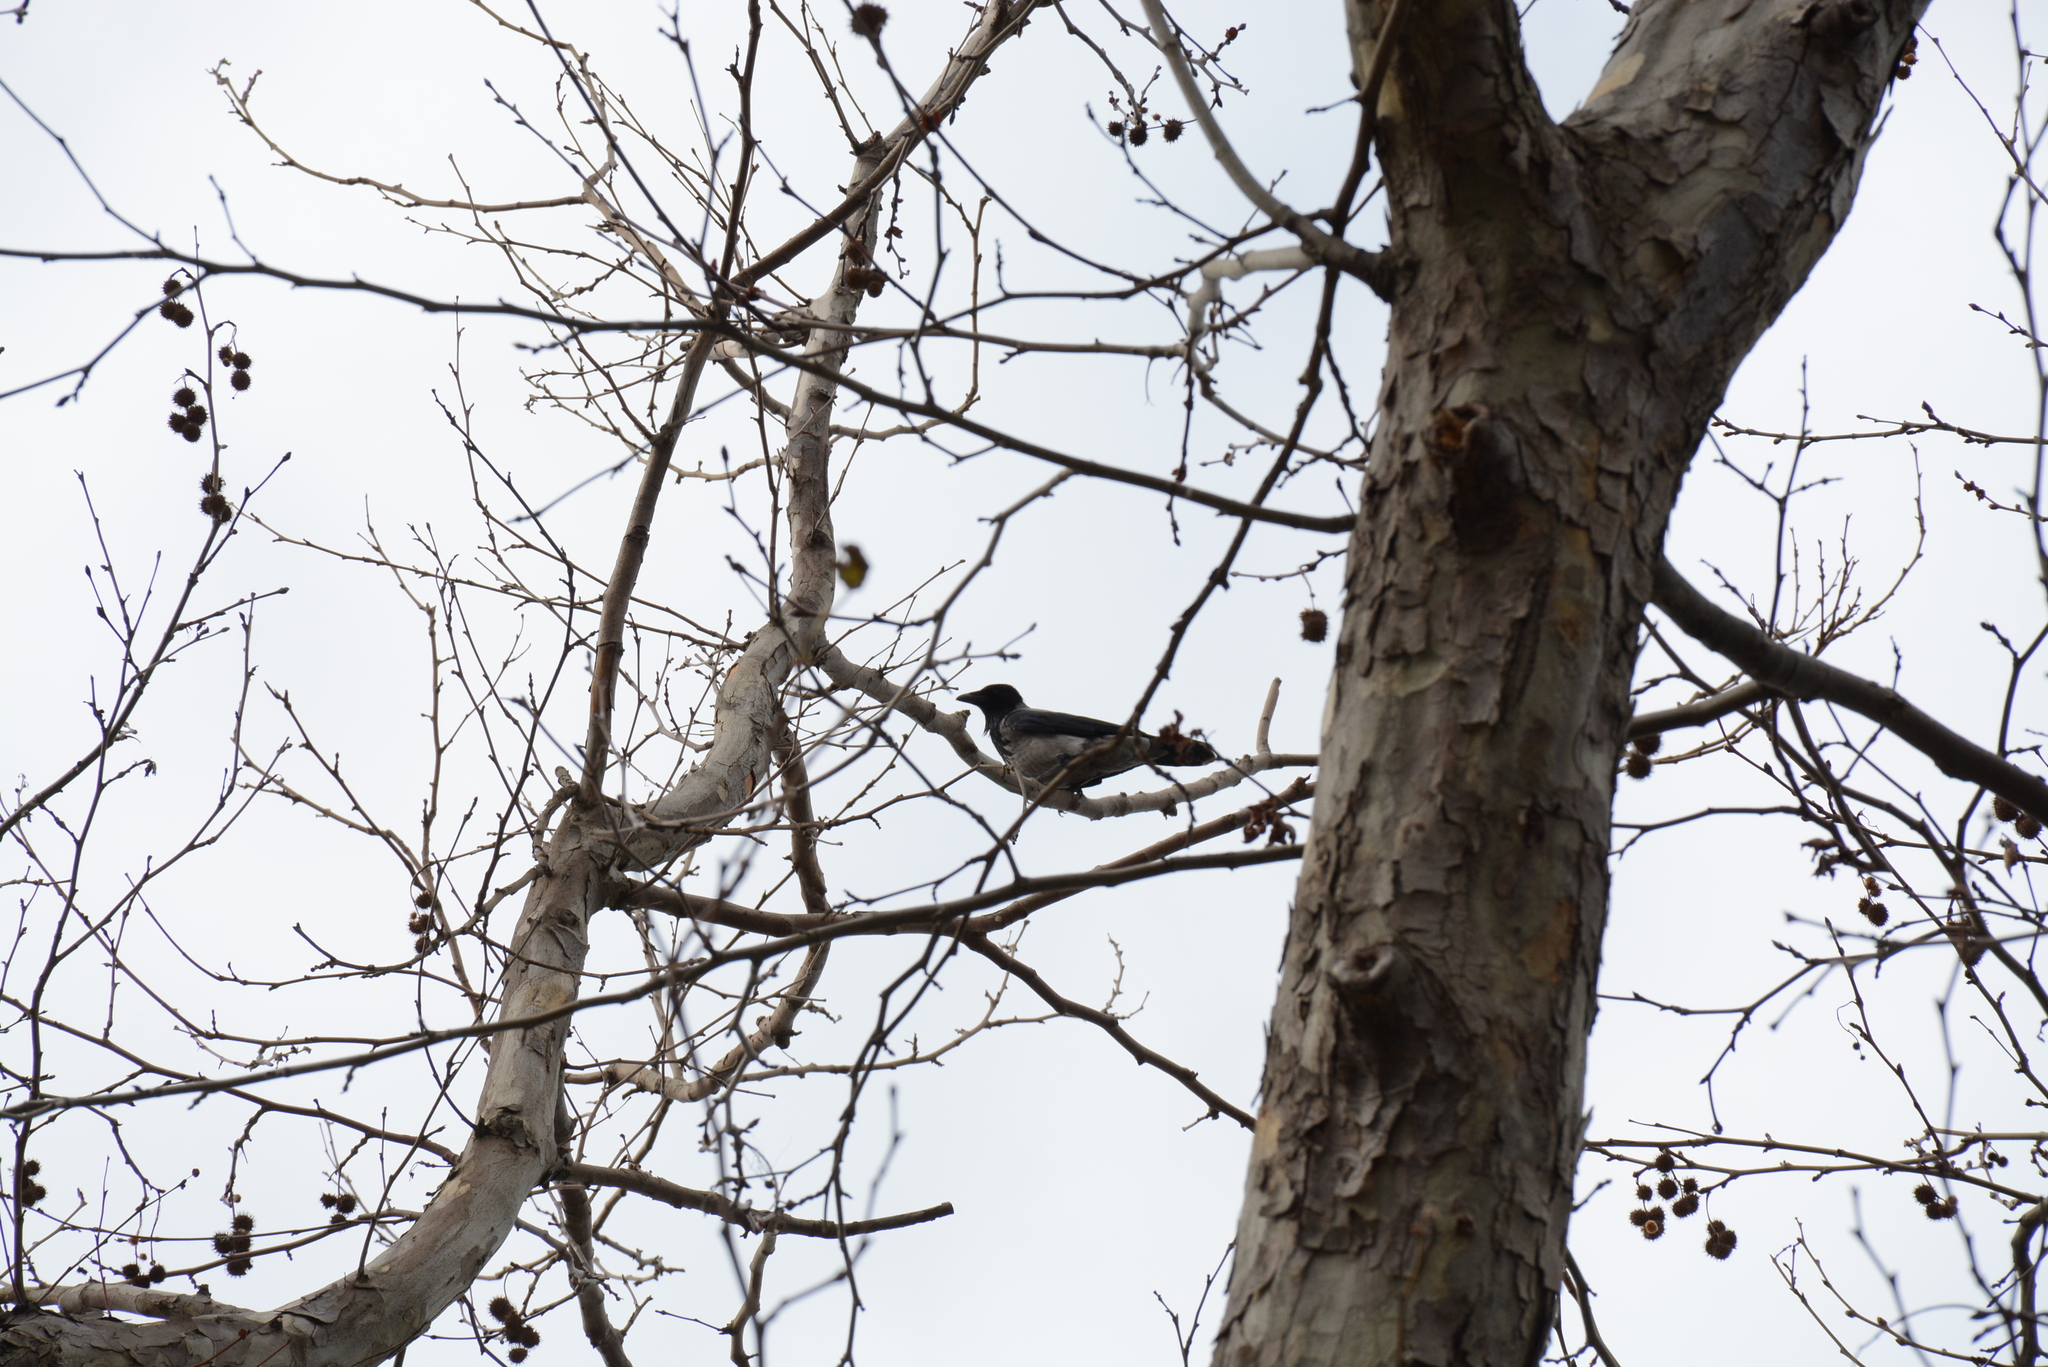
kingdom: Animalia
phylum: Chordata
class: Aves
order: Passeriformes
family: Corvidae
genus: Corvus
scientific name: Corvus cornix
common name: Hooded crow
